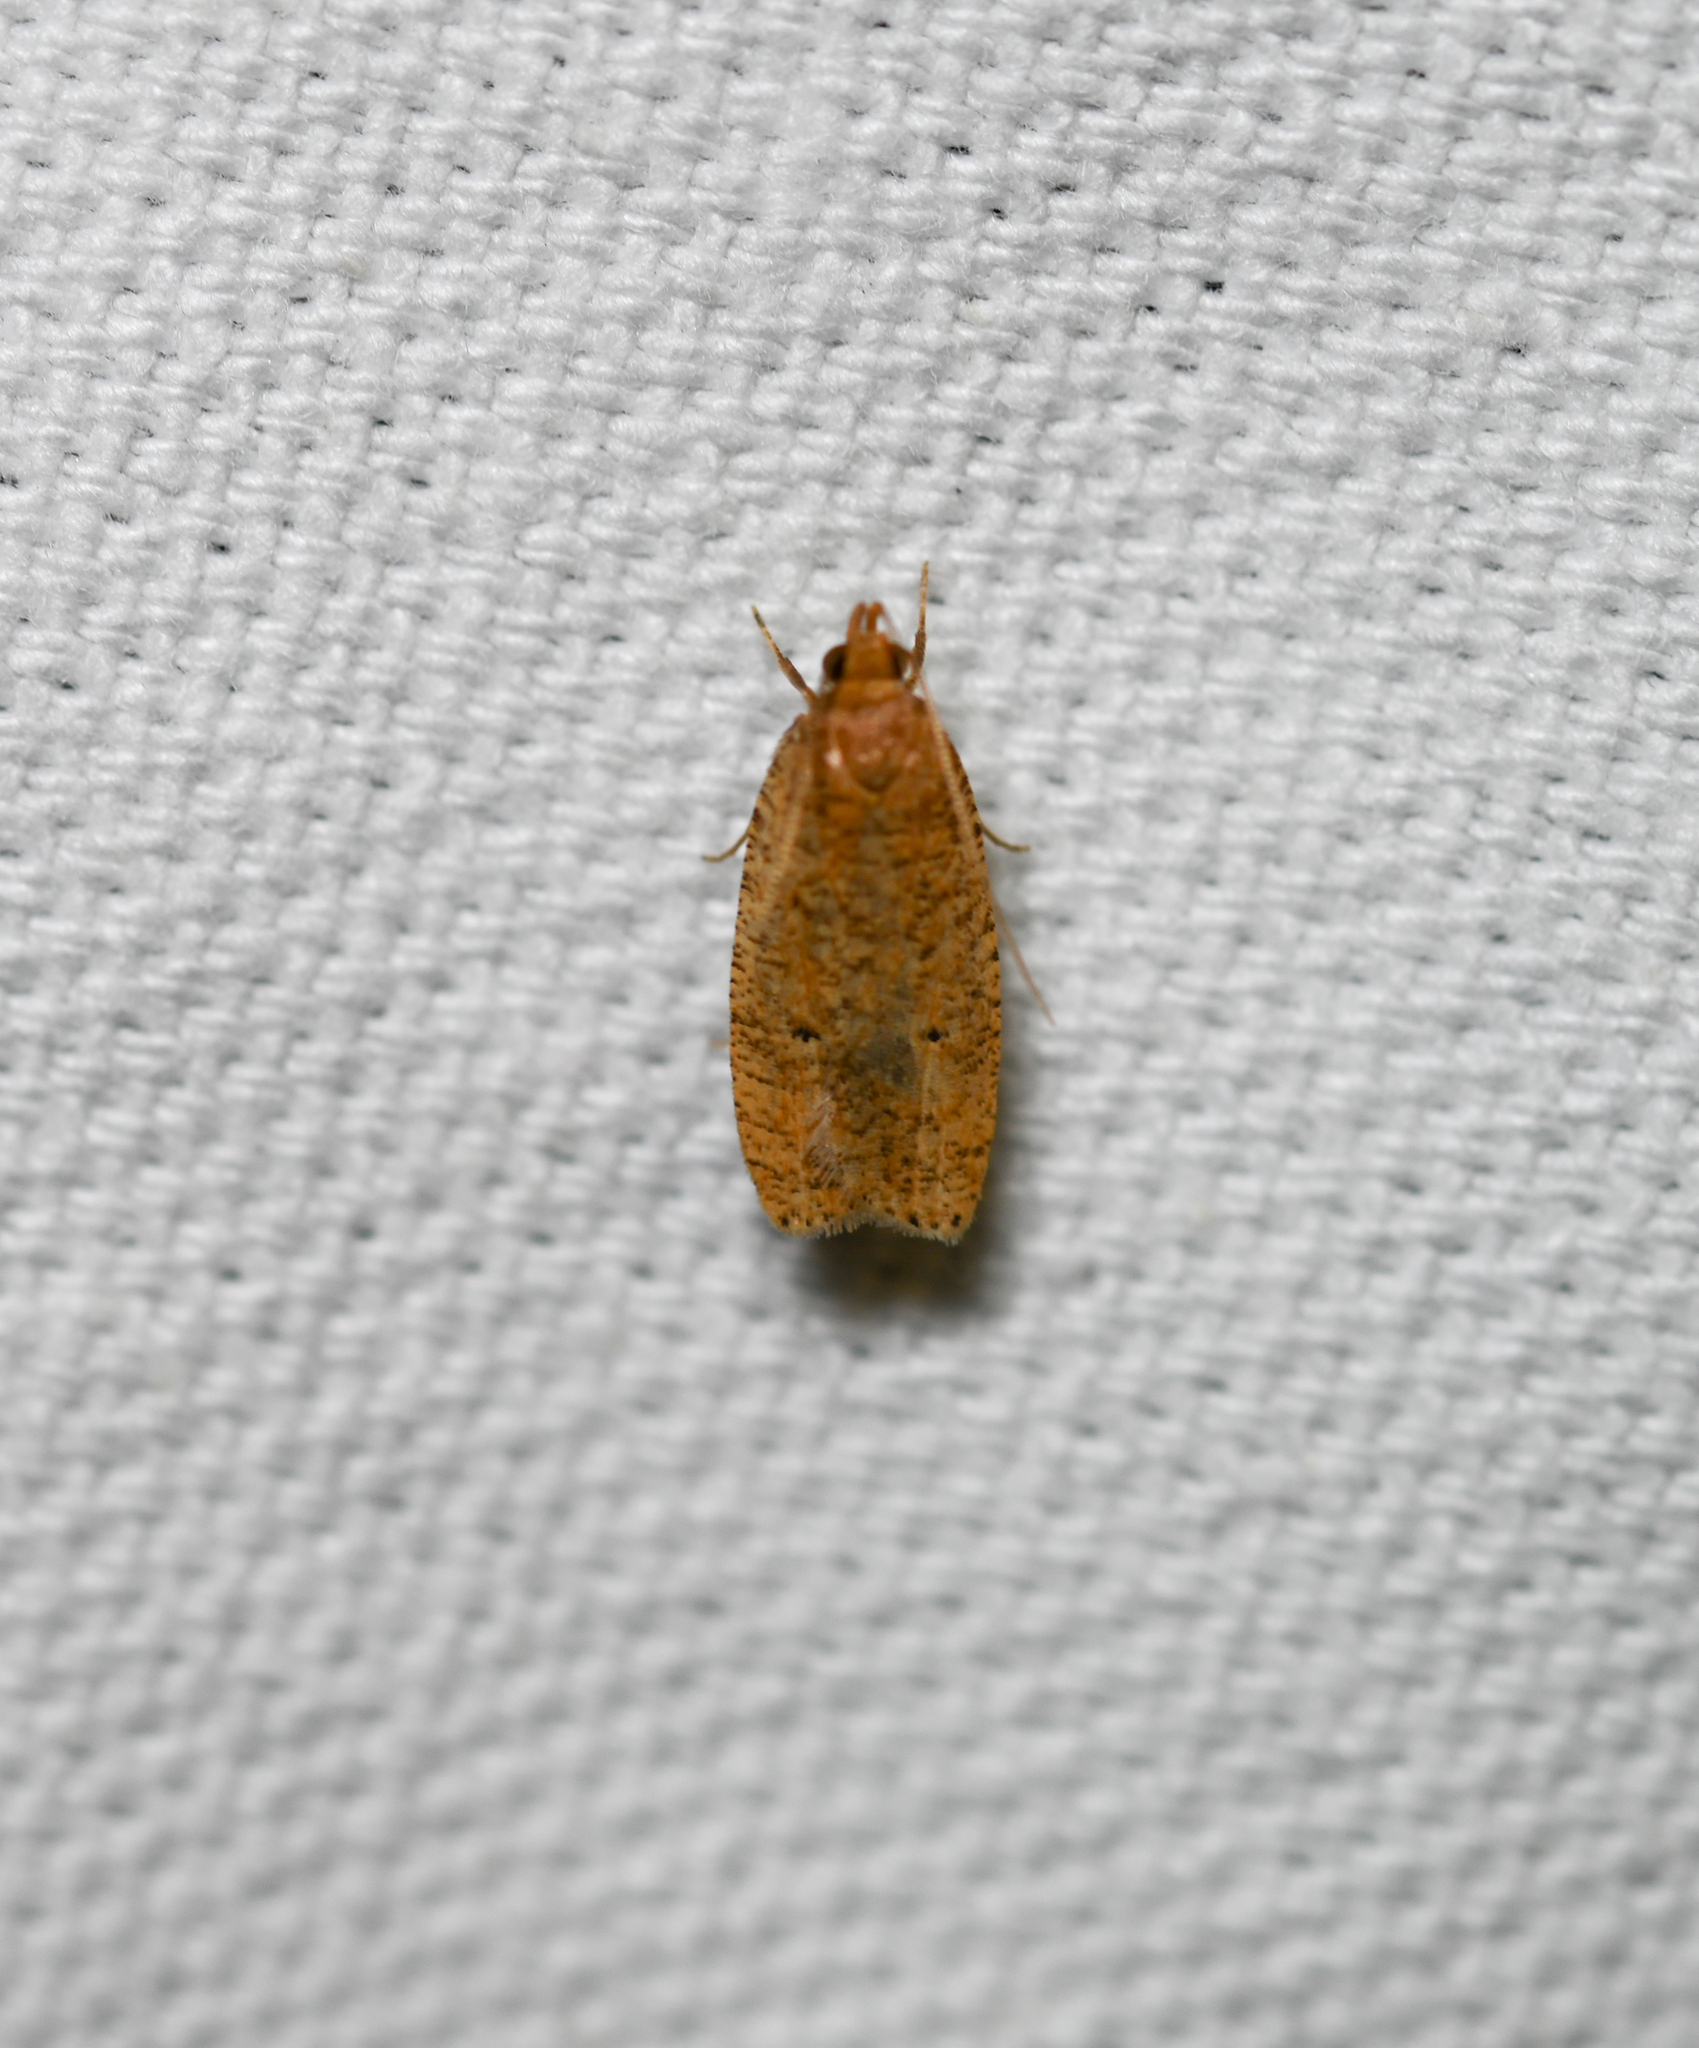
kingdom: Animalia
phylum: Arthropoda
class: Insecta
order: Lepidoptera
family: Depressariidae
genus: Psilocorsis
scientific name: Psilocorsis reflexella
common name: Dotted leaftier moth
